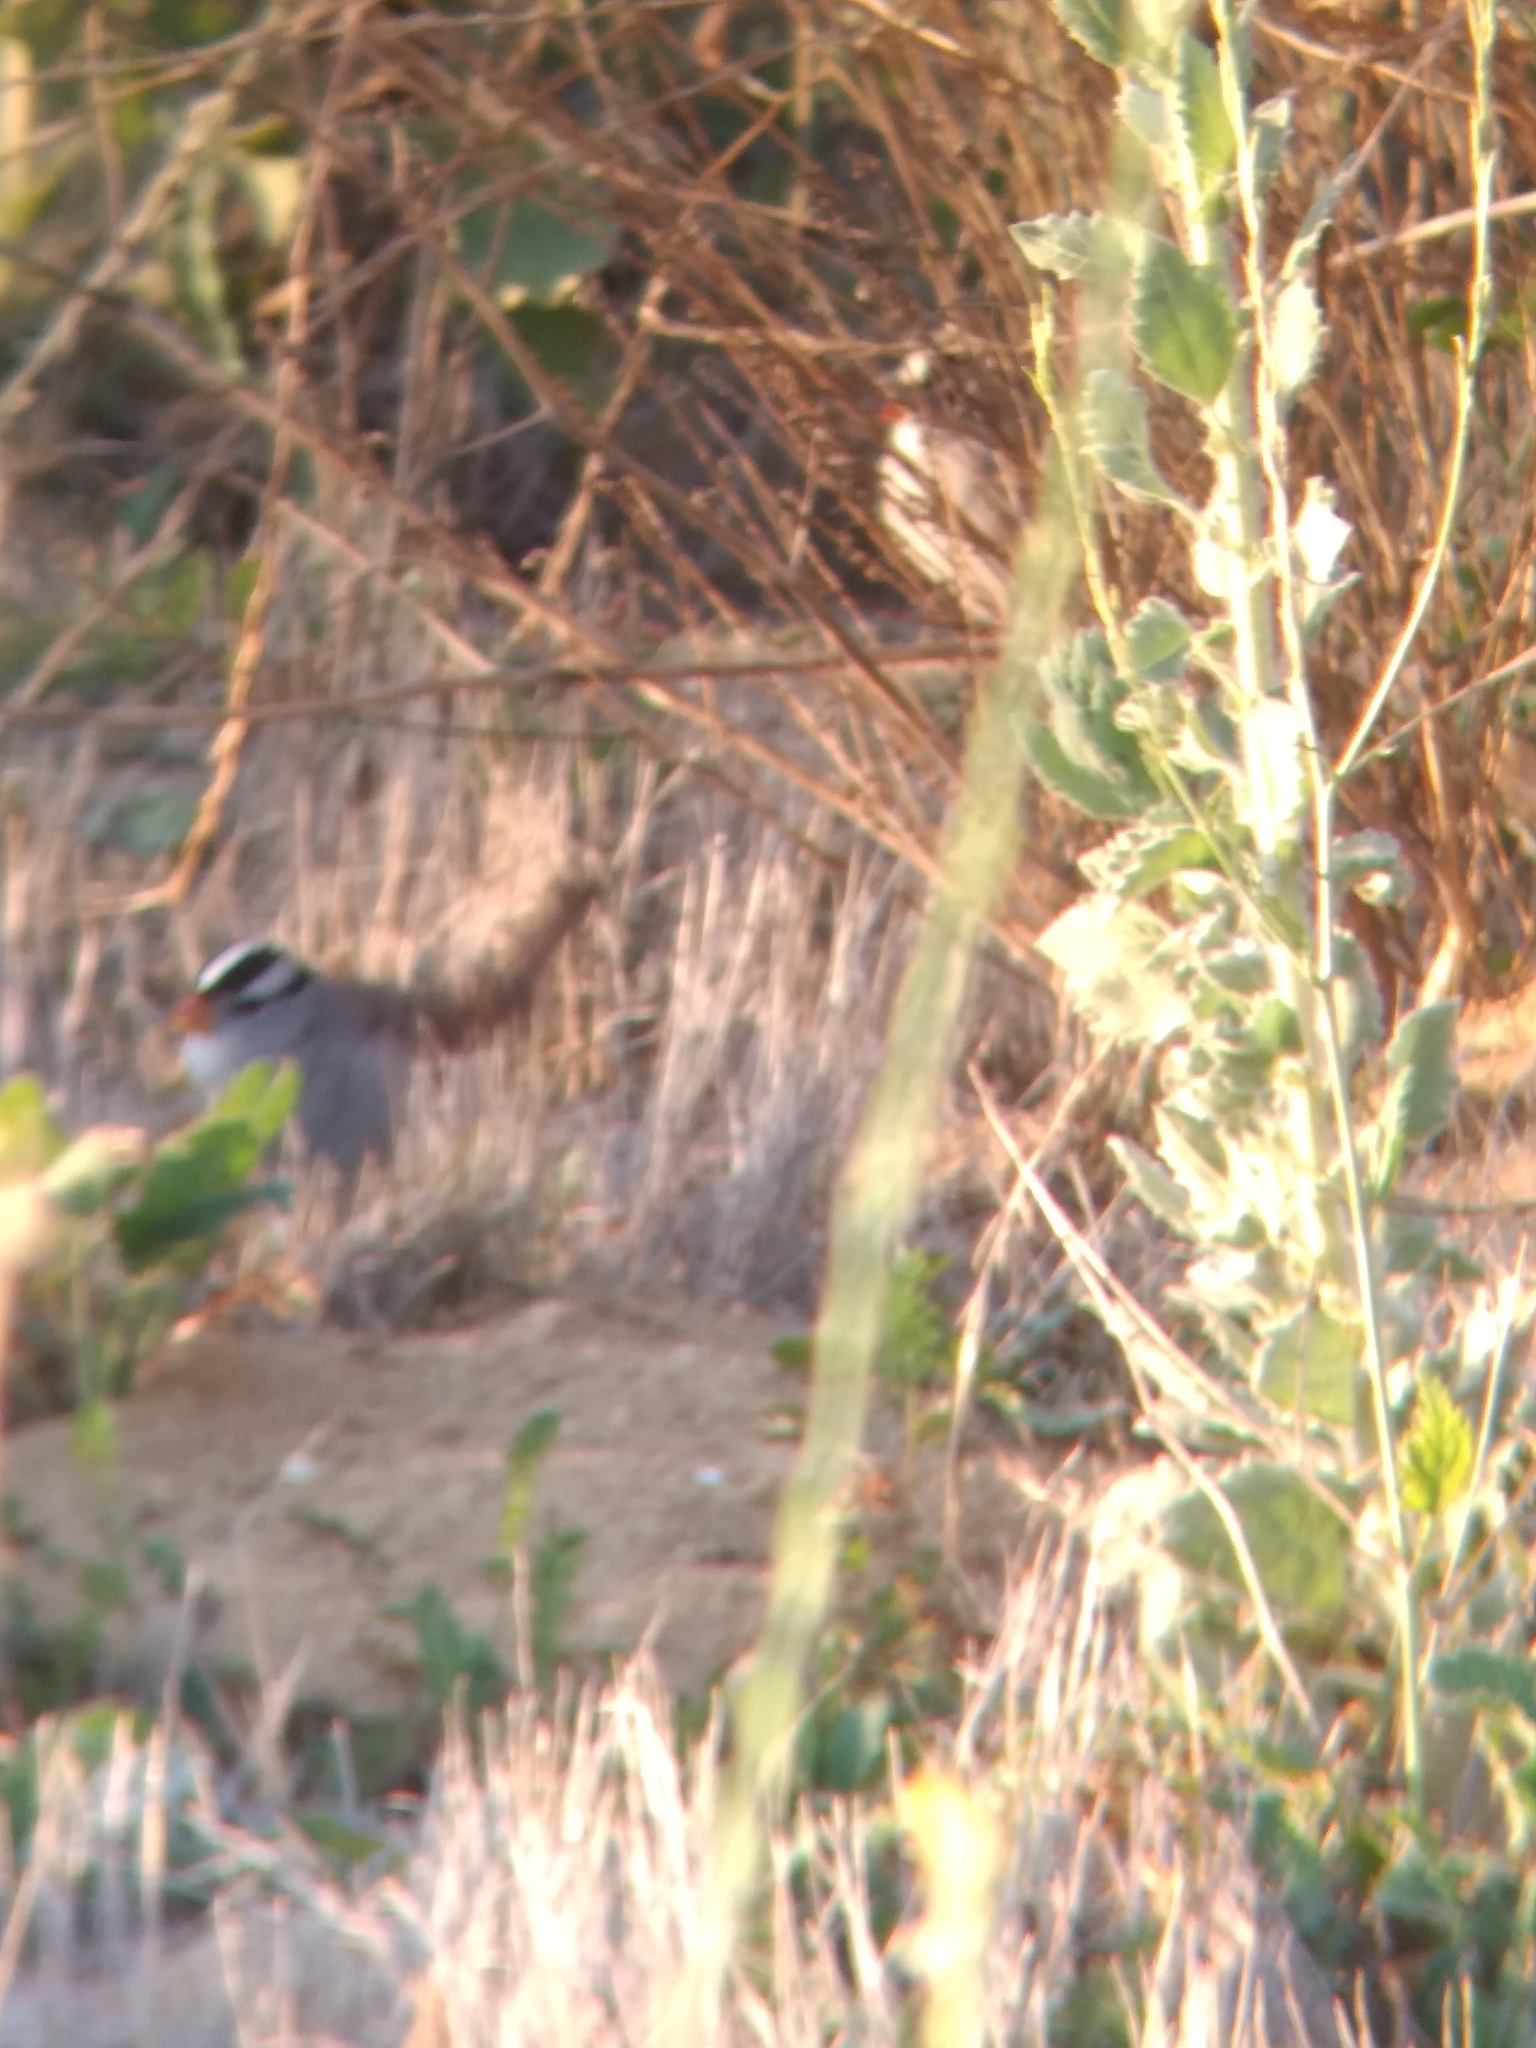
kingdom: Animalia
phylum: Chordata
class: Aves
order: Passeriformes
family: Passerellidae
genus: Zonotrichia
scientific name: Zonotrichia leucophrys
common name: White-crowned sparrow
